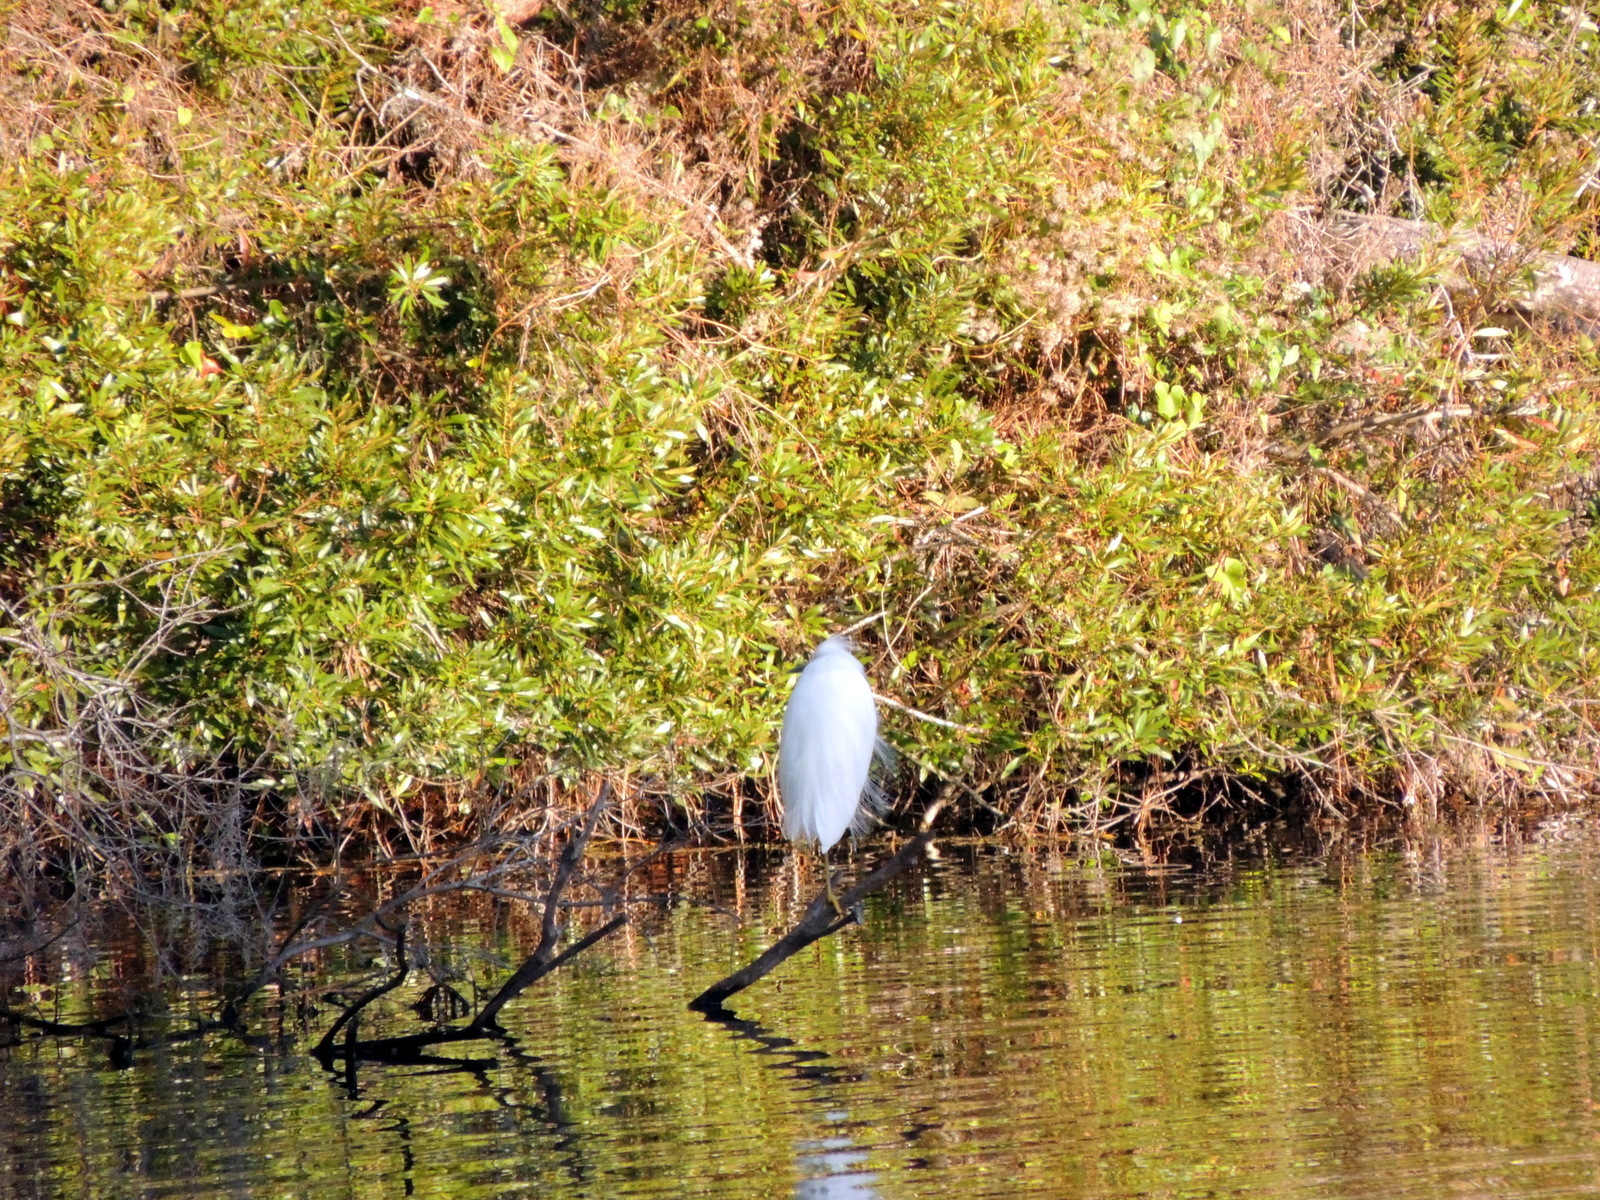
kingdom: Animalia
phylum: Chordata
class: Aves
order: Pelecaniformes
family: Ardeidae
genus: Egretta
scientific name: Egretta thula
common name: Snowy egret
